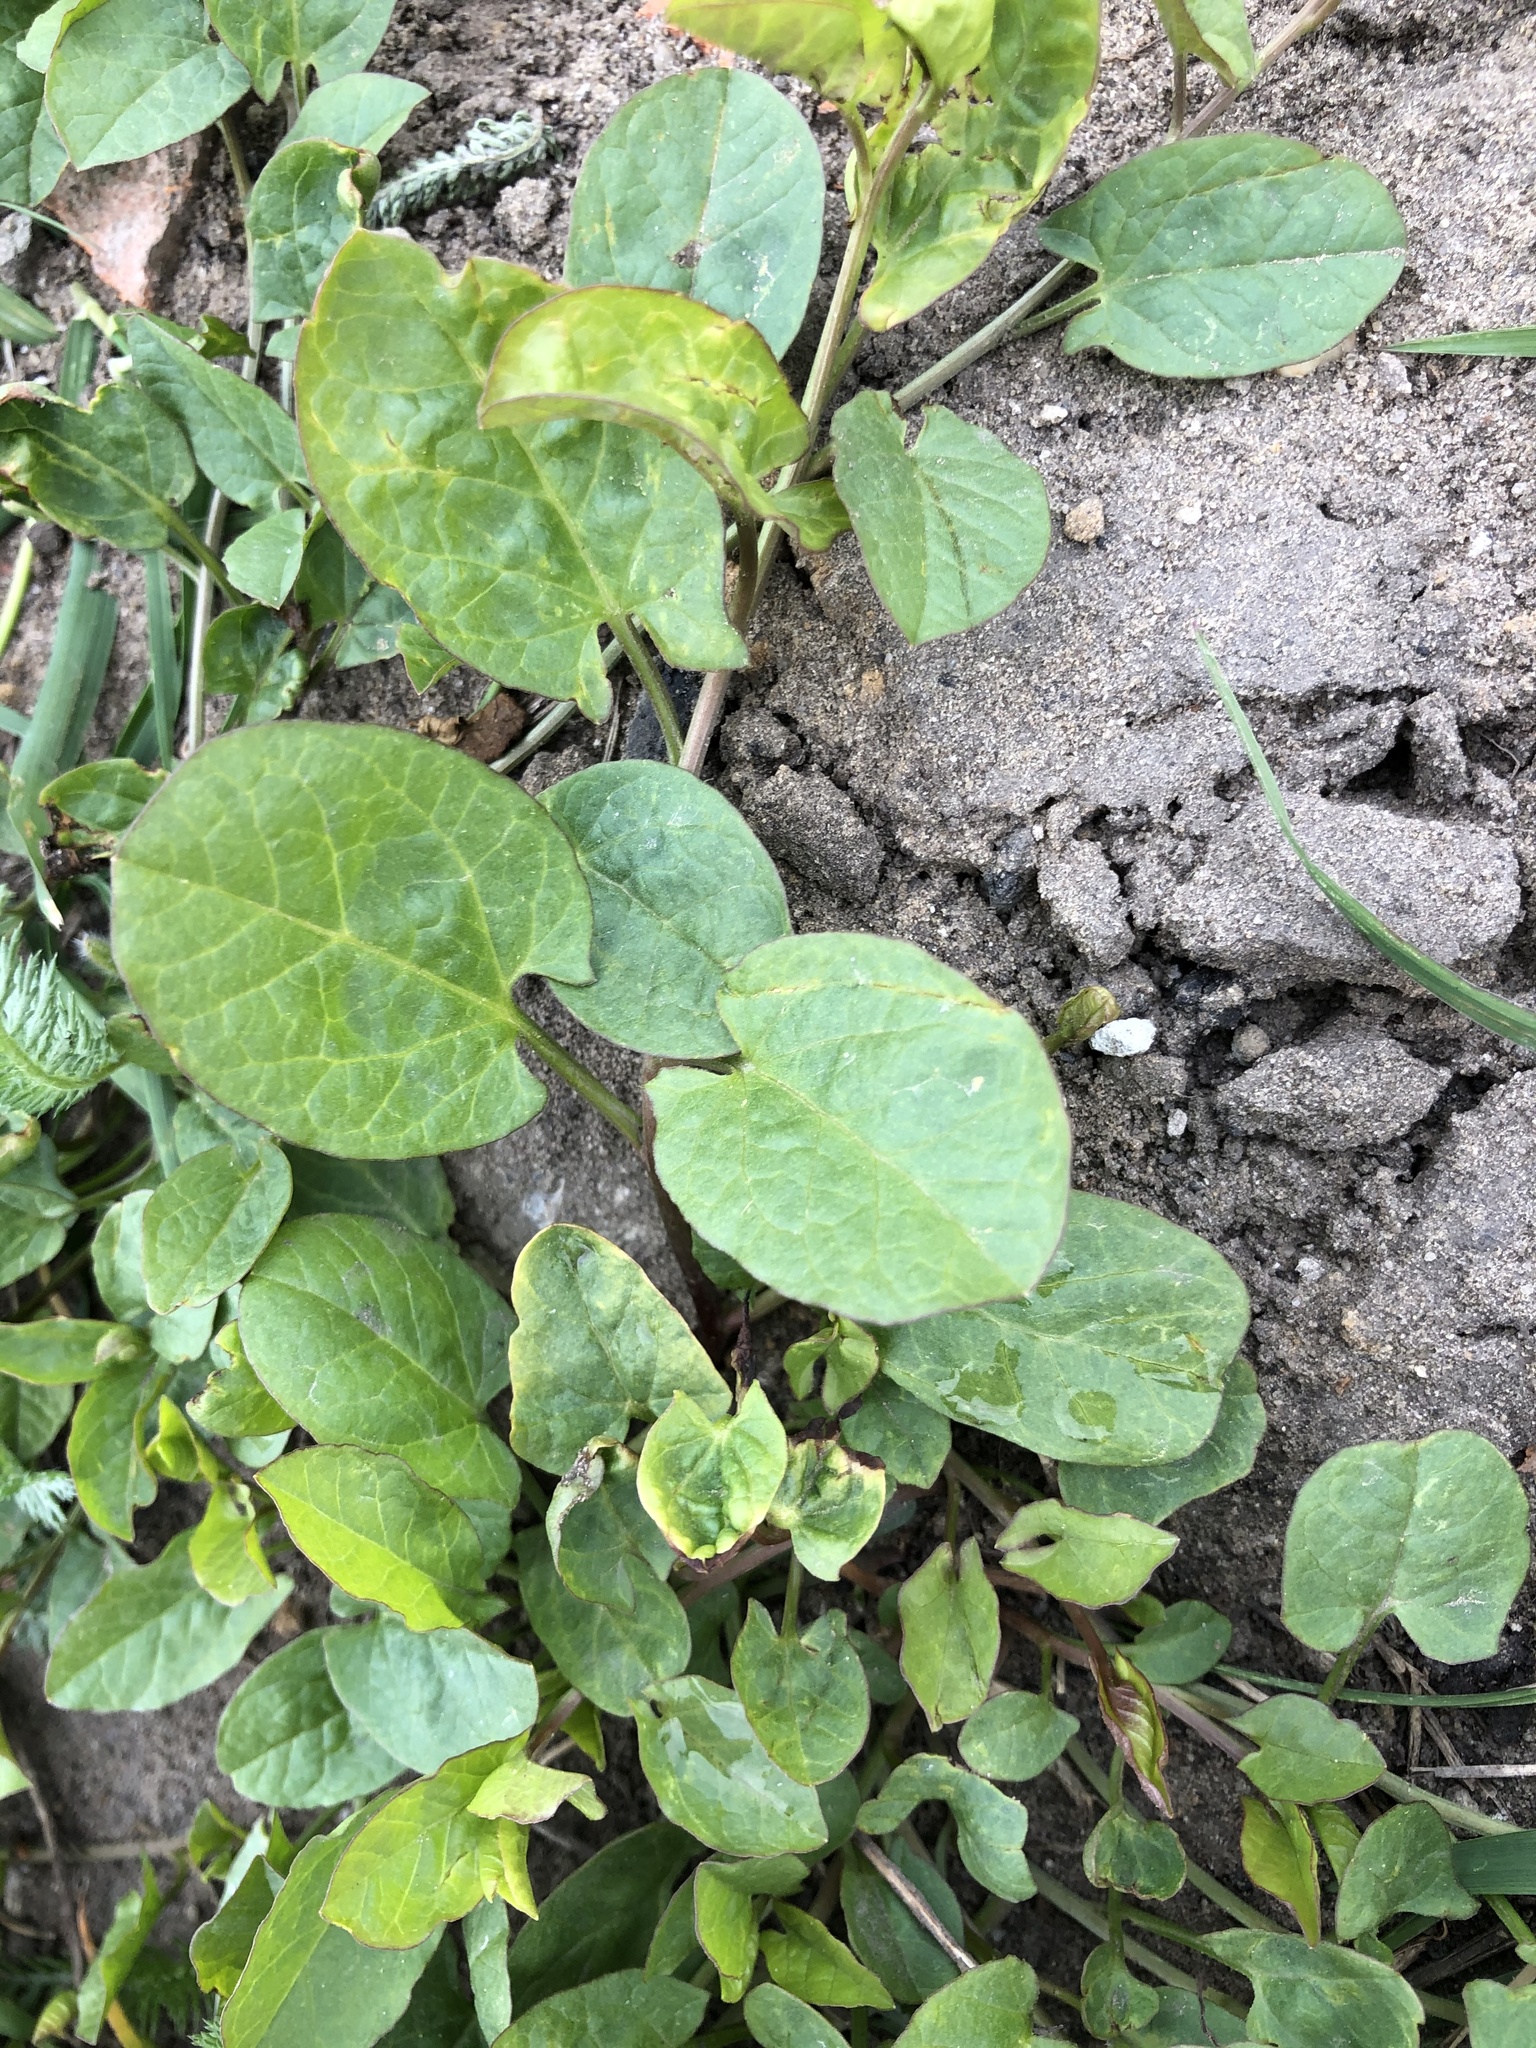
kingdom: Plantae
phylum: Tracheophyta
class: Magnoliopsida
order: Solanales
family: Convolvulaceae
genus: Convolvulus
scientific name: Convolvulus arvensis
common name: Field bindweed
